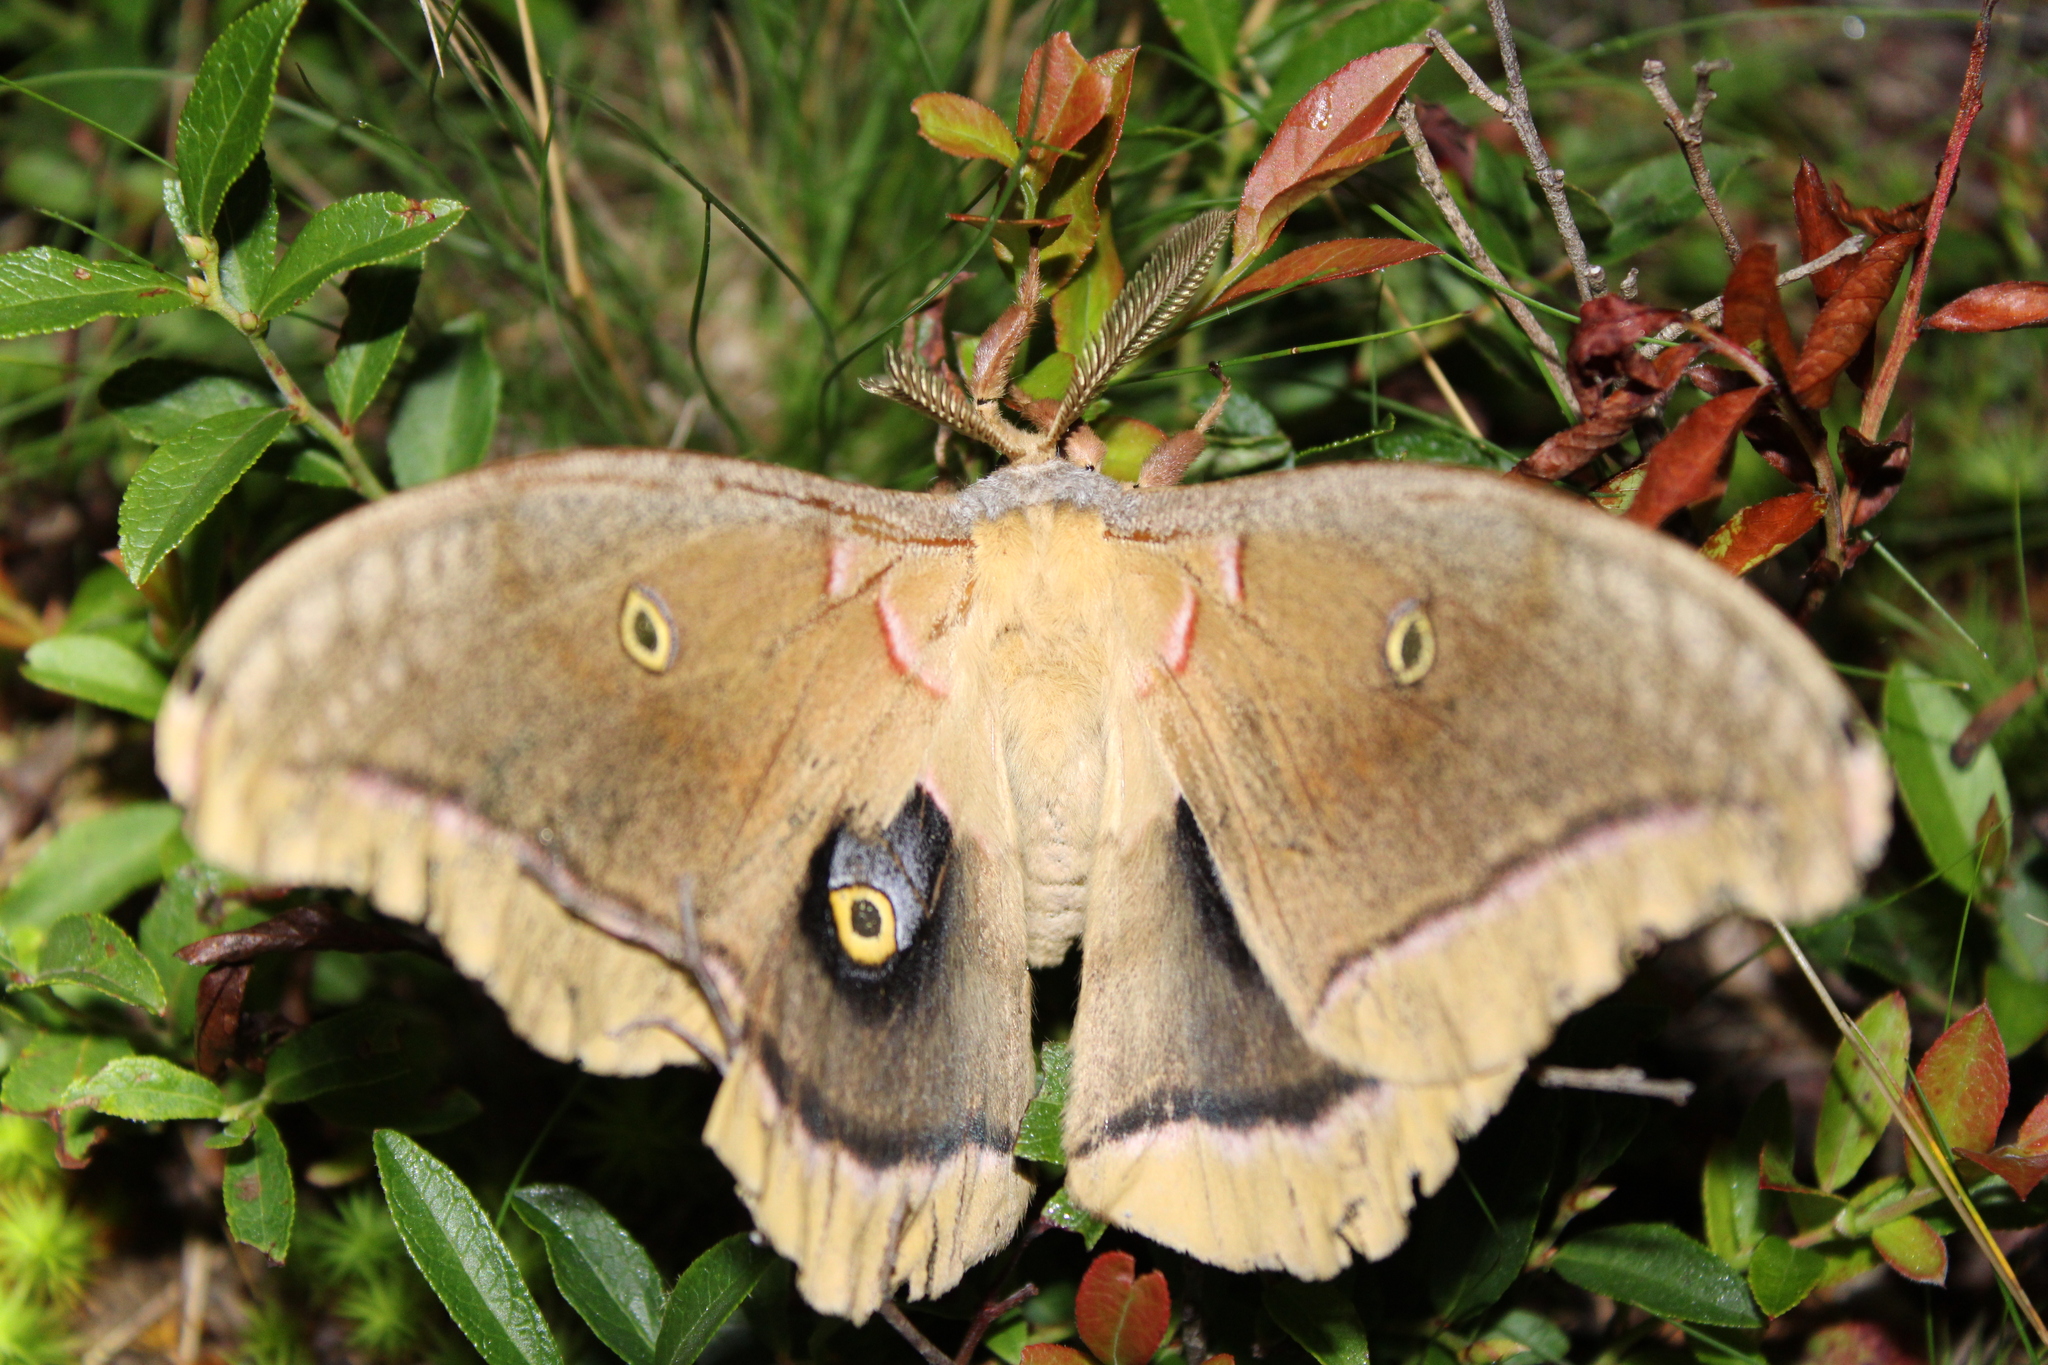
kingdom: Animalia
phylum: Arthropoda
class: Insecta
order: Lepidoptera
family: Saturniidae
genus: Antheraea
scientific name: Antheraea polyphemus
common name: Polyphemus moth
